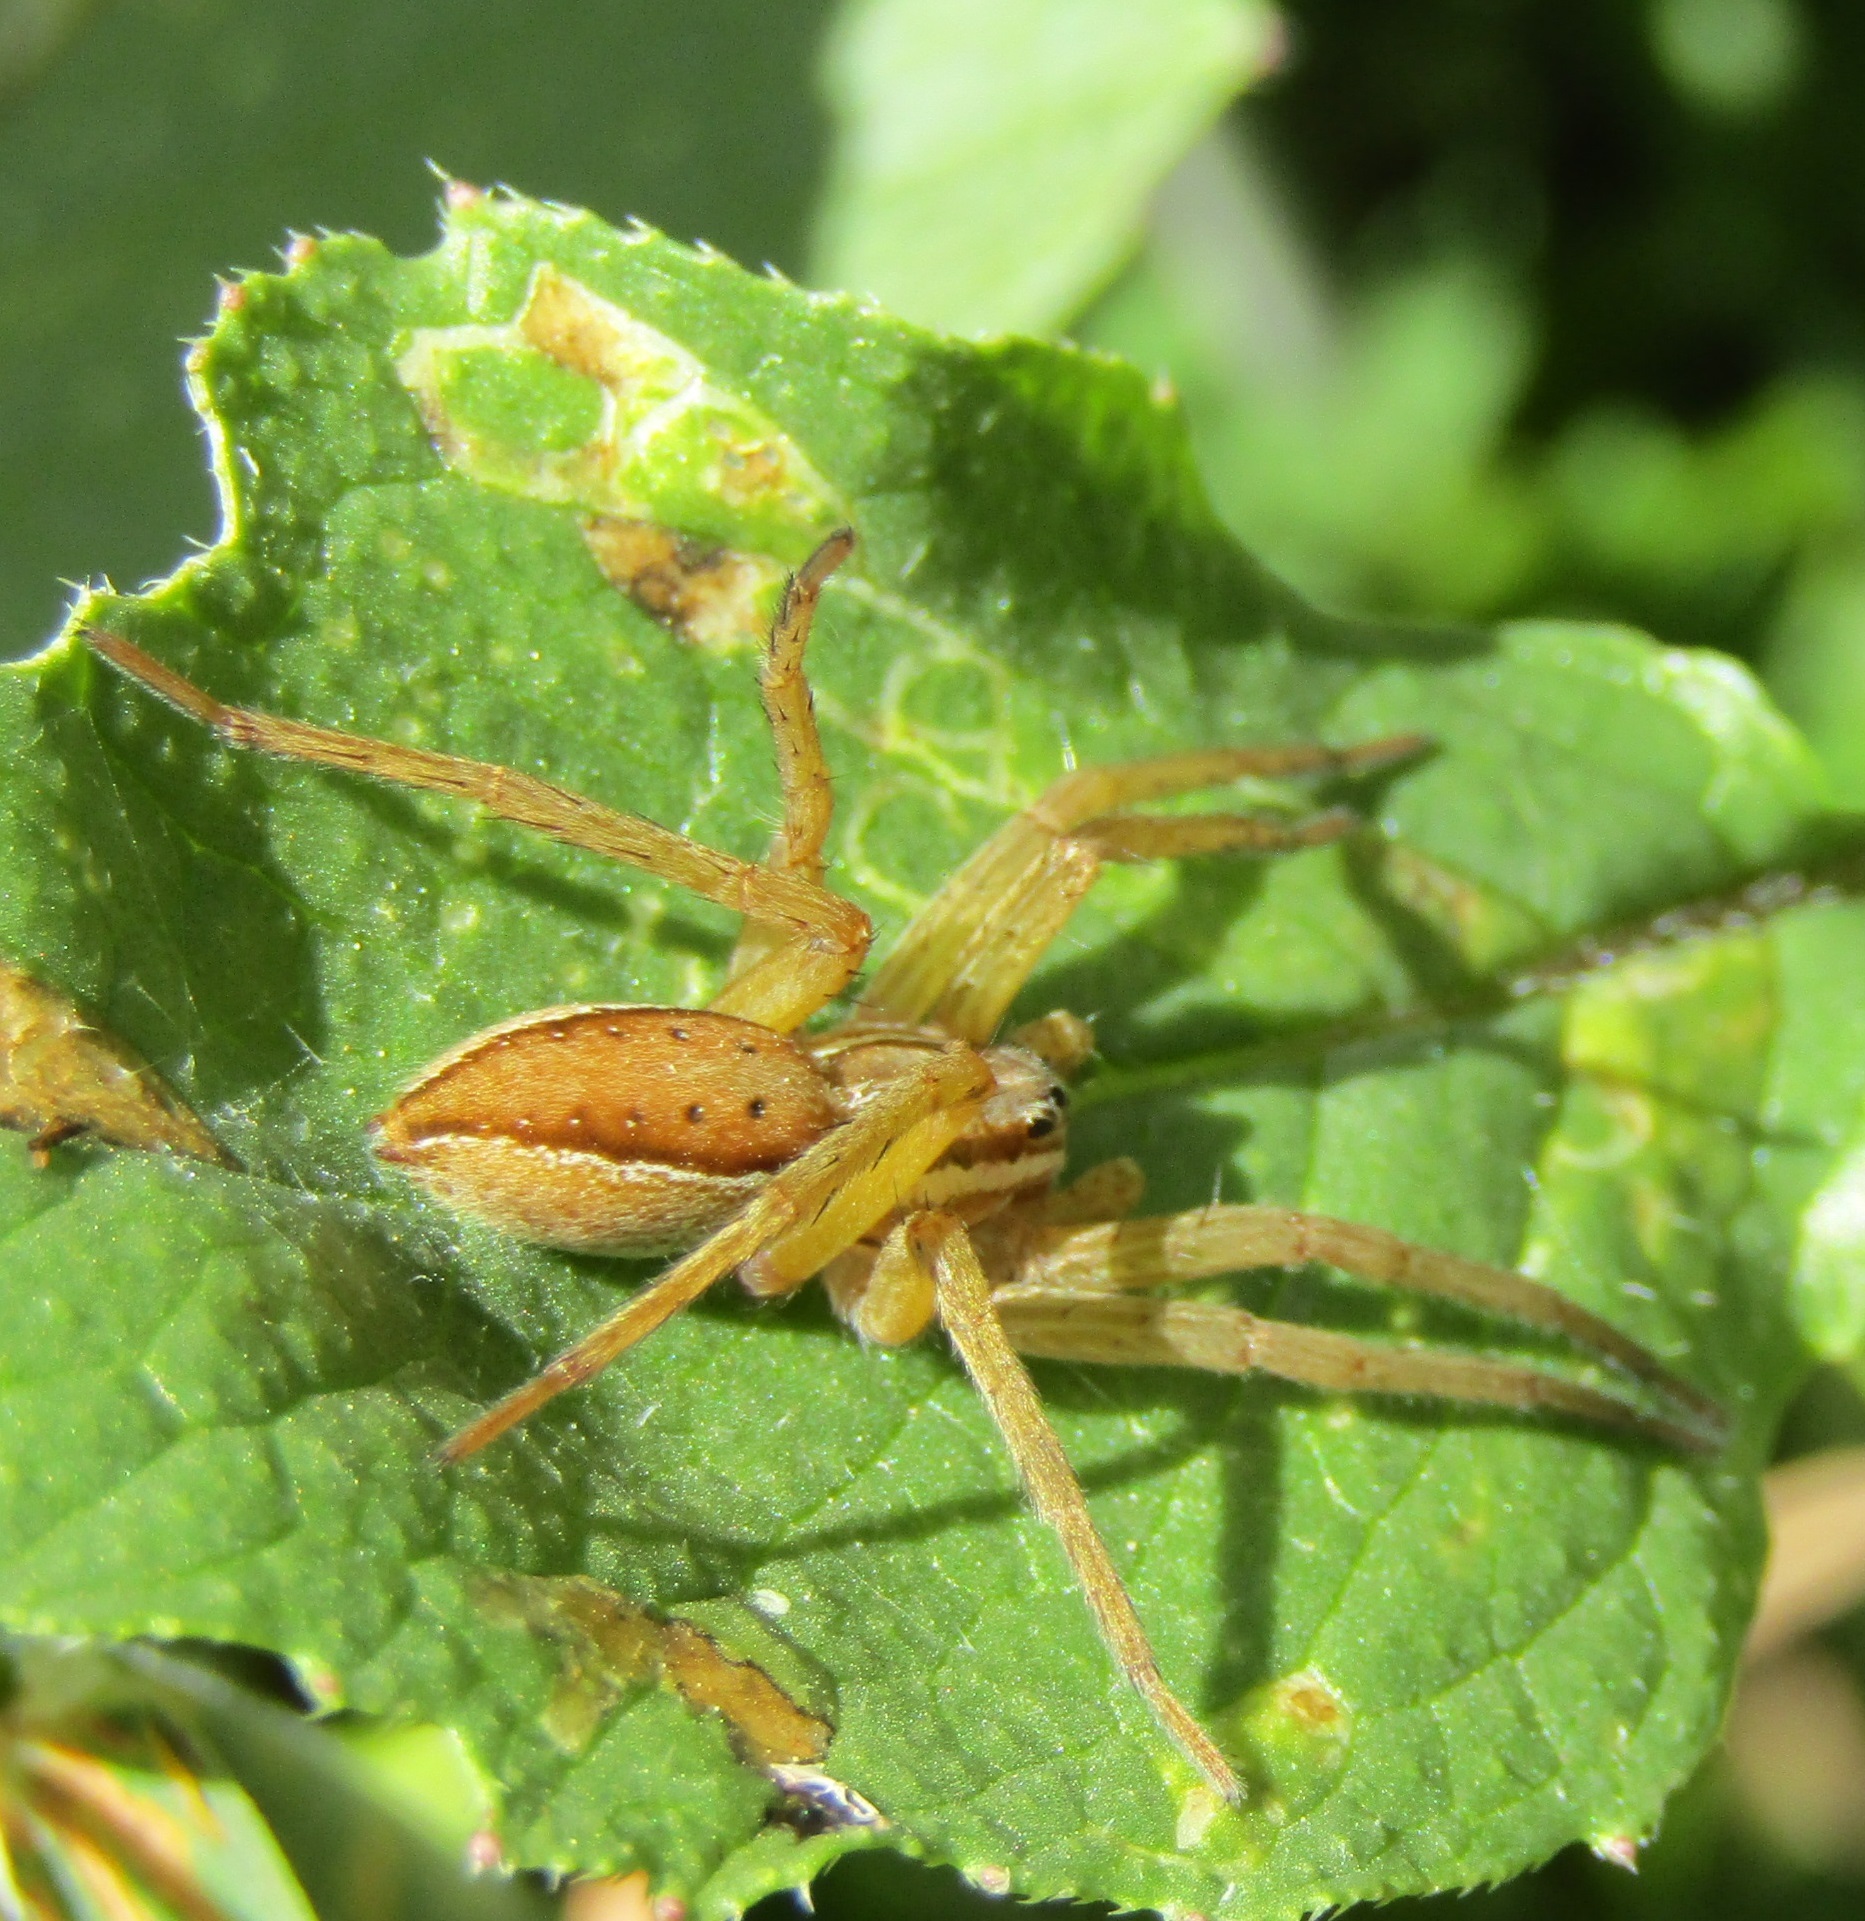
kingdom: Animalia
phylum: Arthropoda
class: Arachnida
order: Araneae
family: Pisauridae
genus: Dolomedes
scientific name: Dolomedes minor
